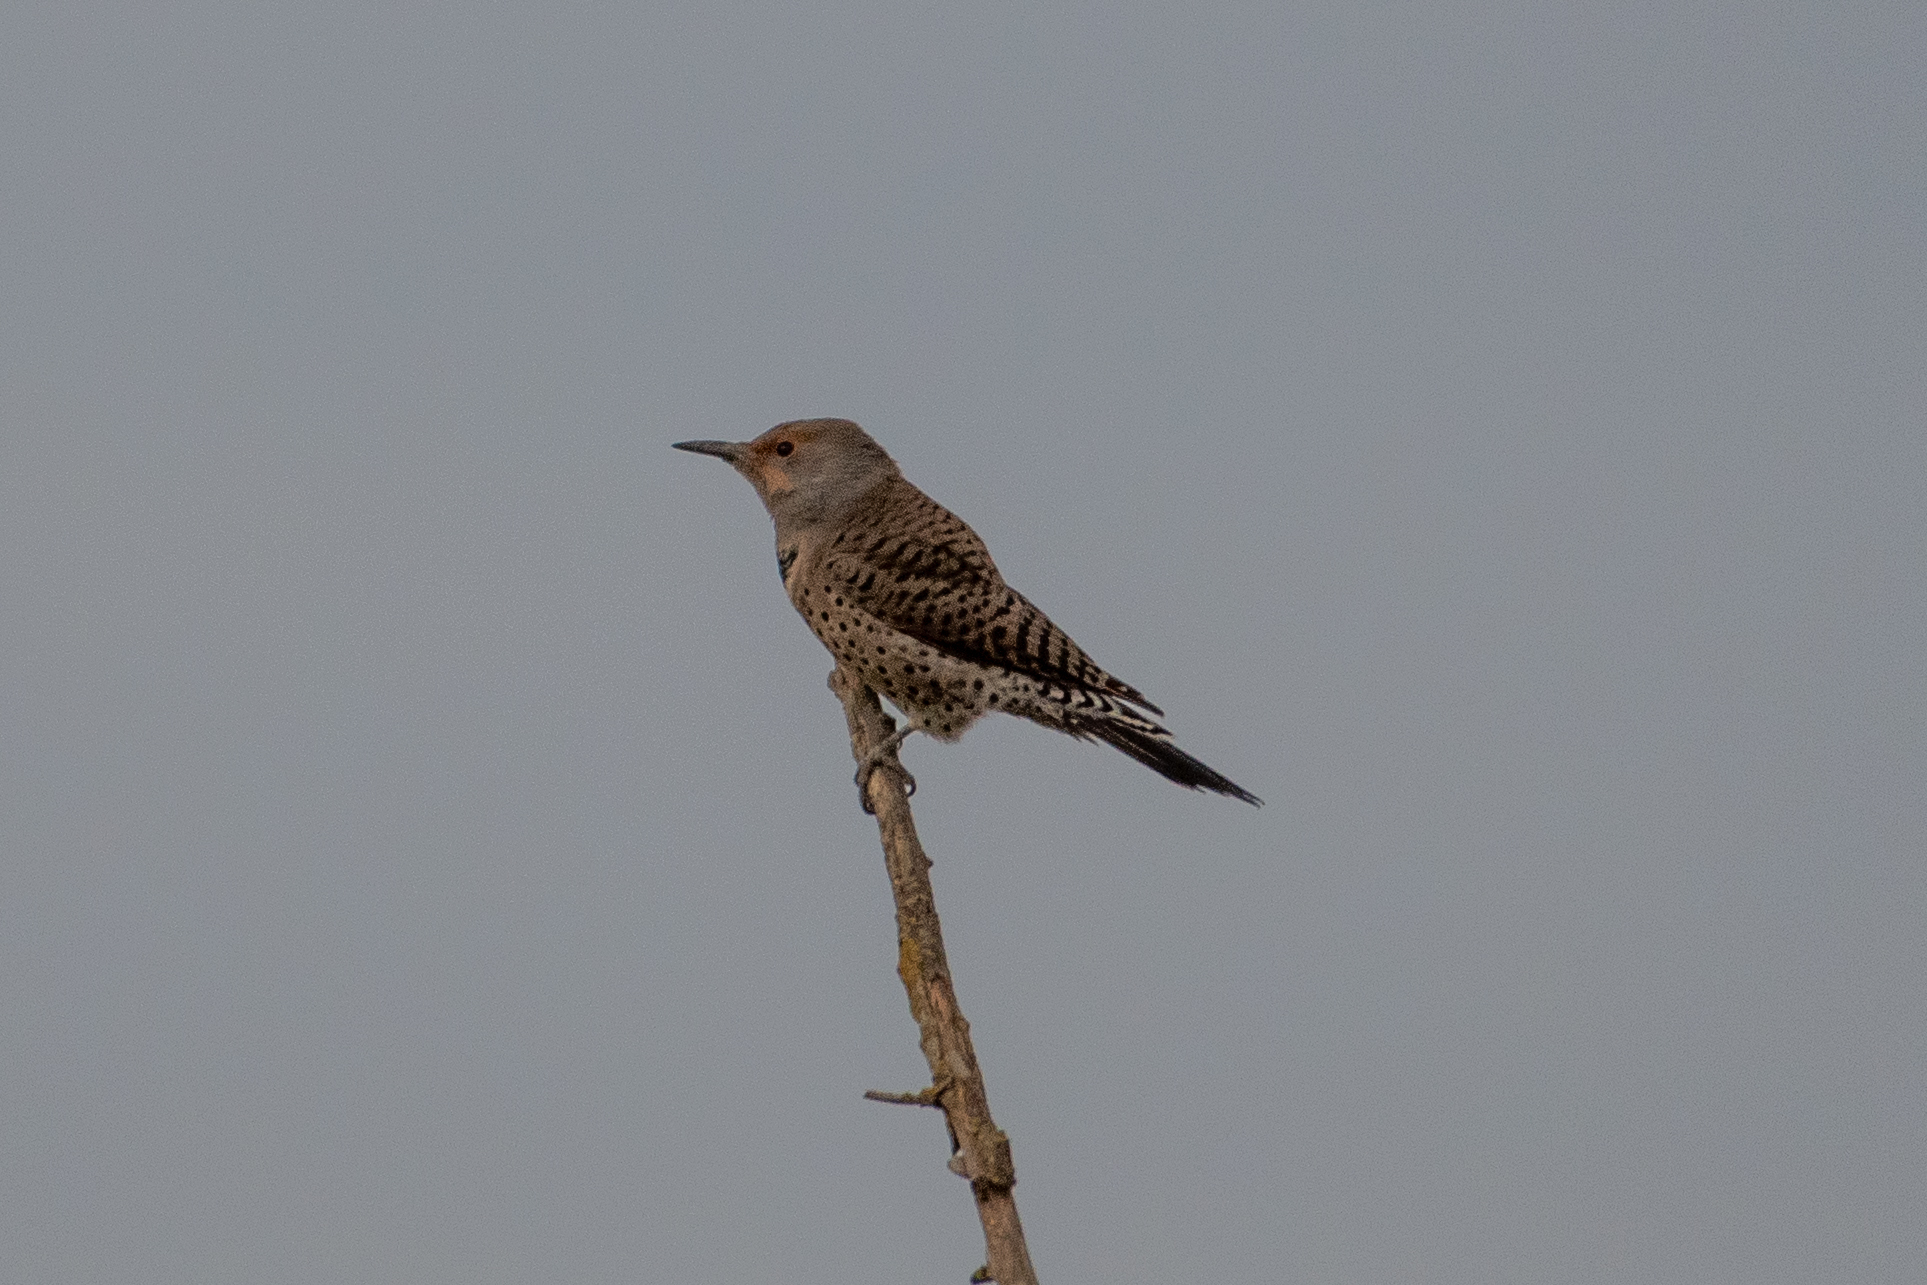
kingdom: Animalia
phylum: Chordata
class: Aves
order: Piciformes
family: Picidae
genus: Colaptes
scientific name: Colaptes auratus
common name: Northern flicker
